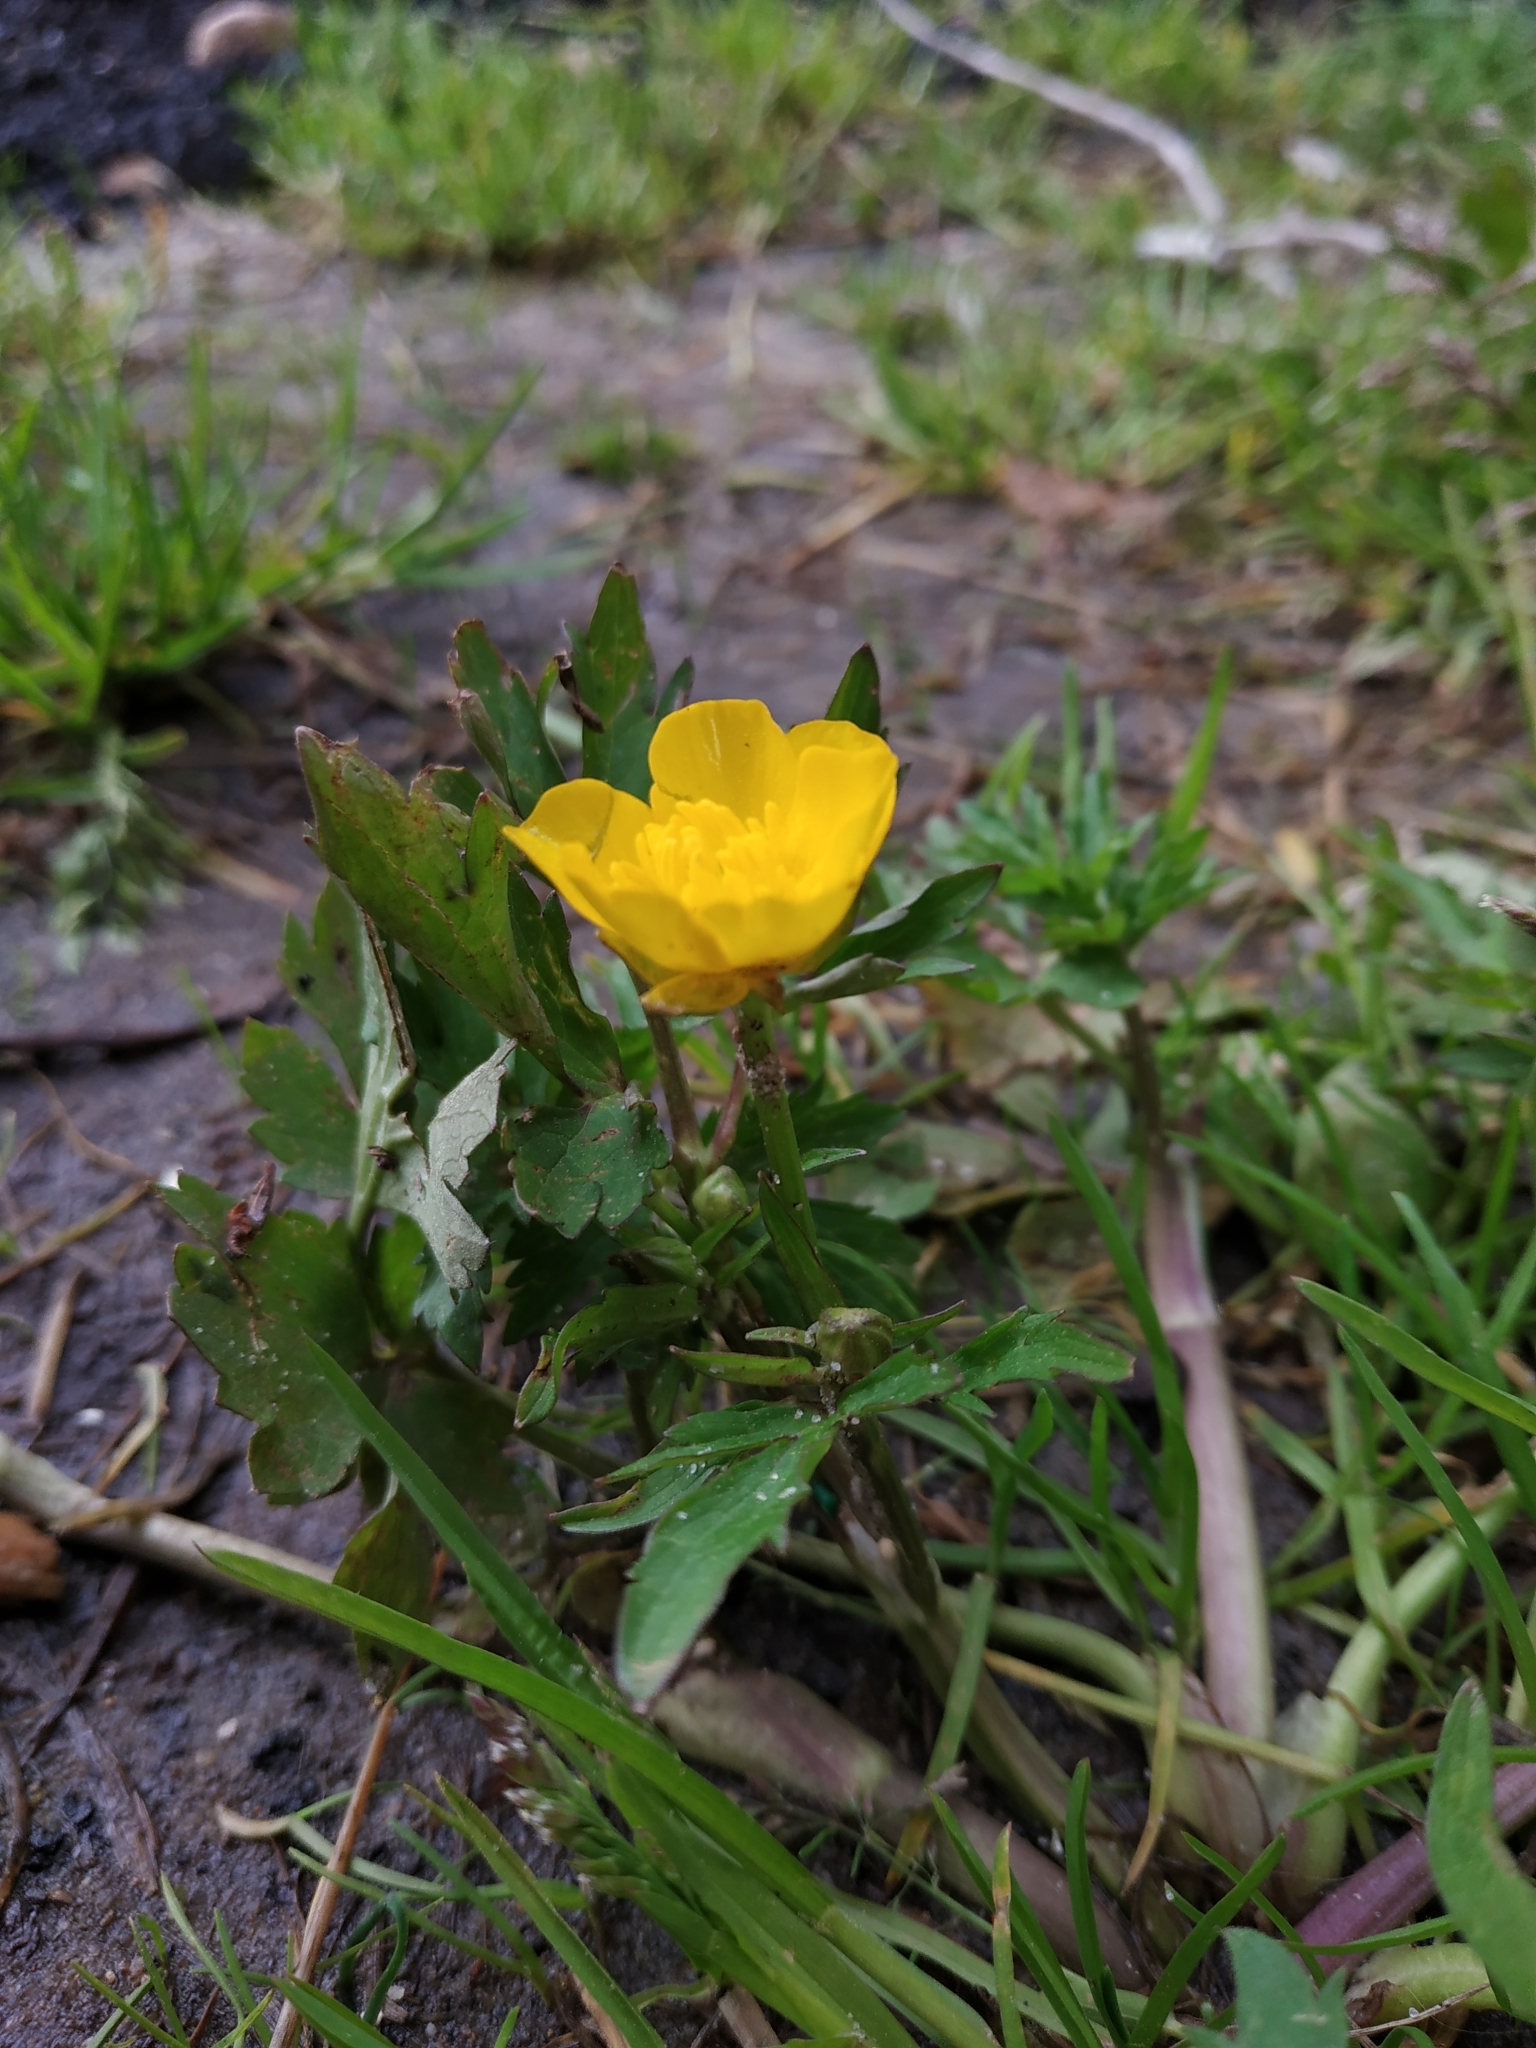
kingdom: Plantae
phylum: Tracheophyta
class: Magnoliopsida
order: Ranunculales
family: Ranunculaceae
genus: Ranunculus
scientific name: Ranunculus repens
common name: Creeping buttercup
